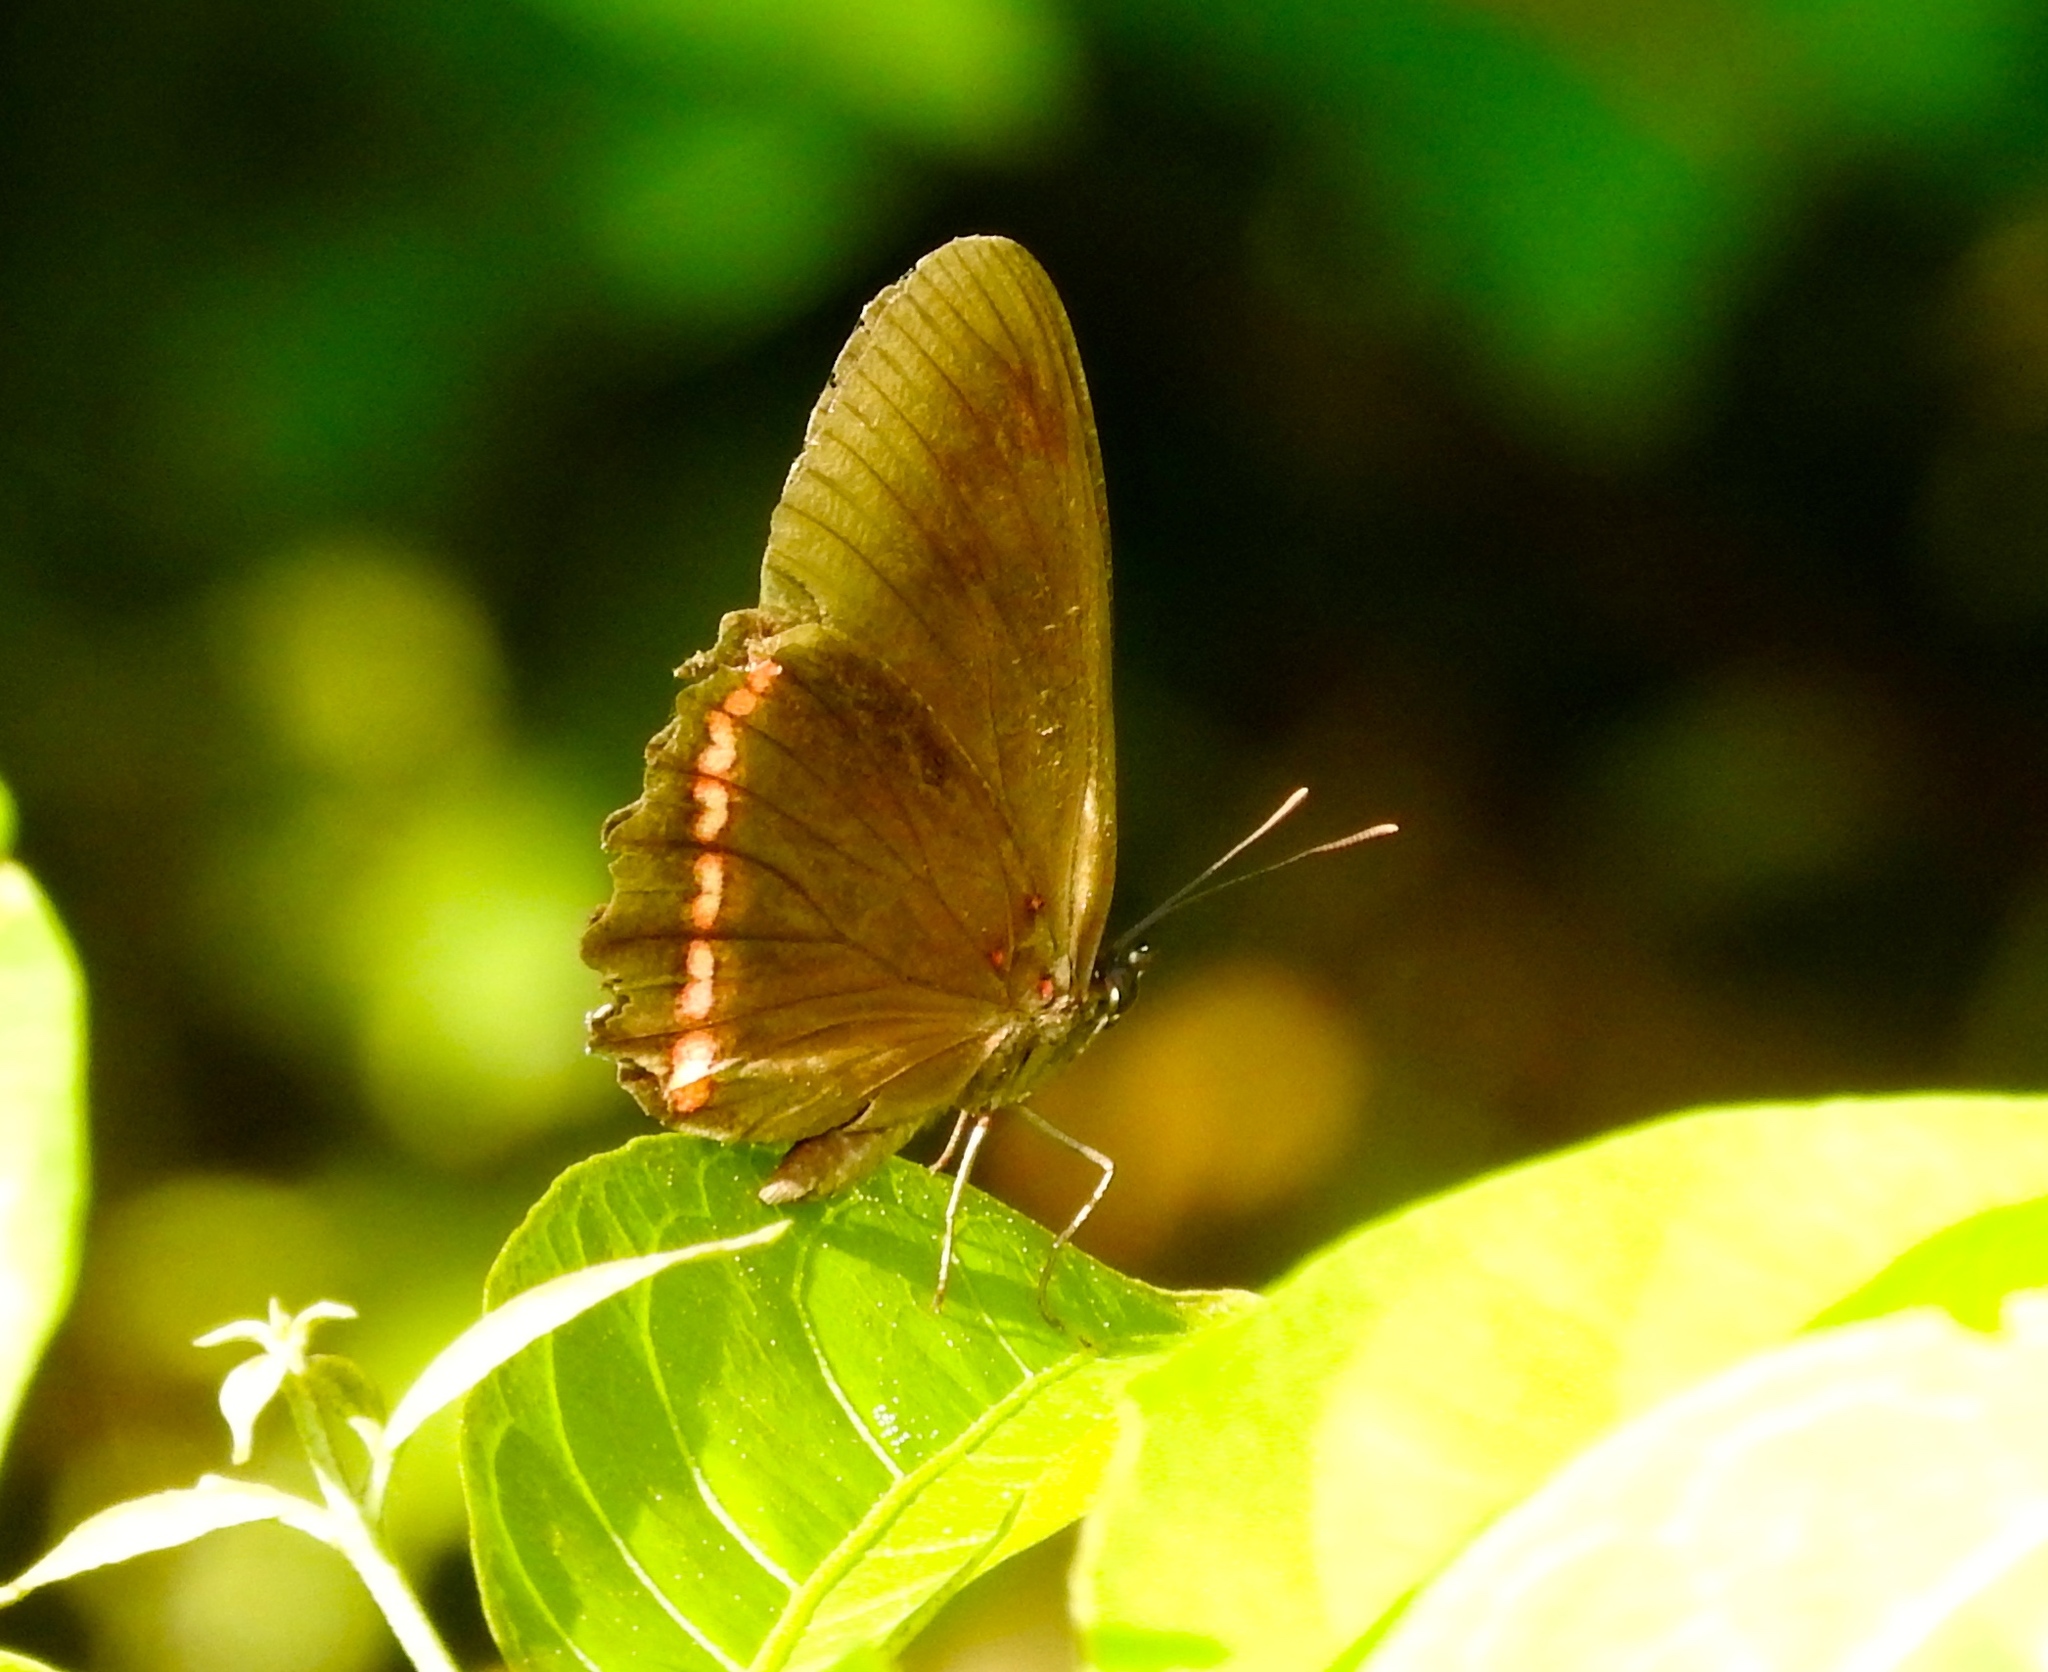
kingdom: Animalia
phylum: Arthropoda
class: Insecta
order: Lepidoptera
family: Nymphalidae
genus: Biblis
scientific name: Biblis aganisa
